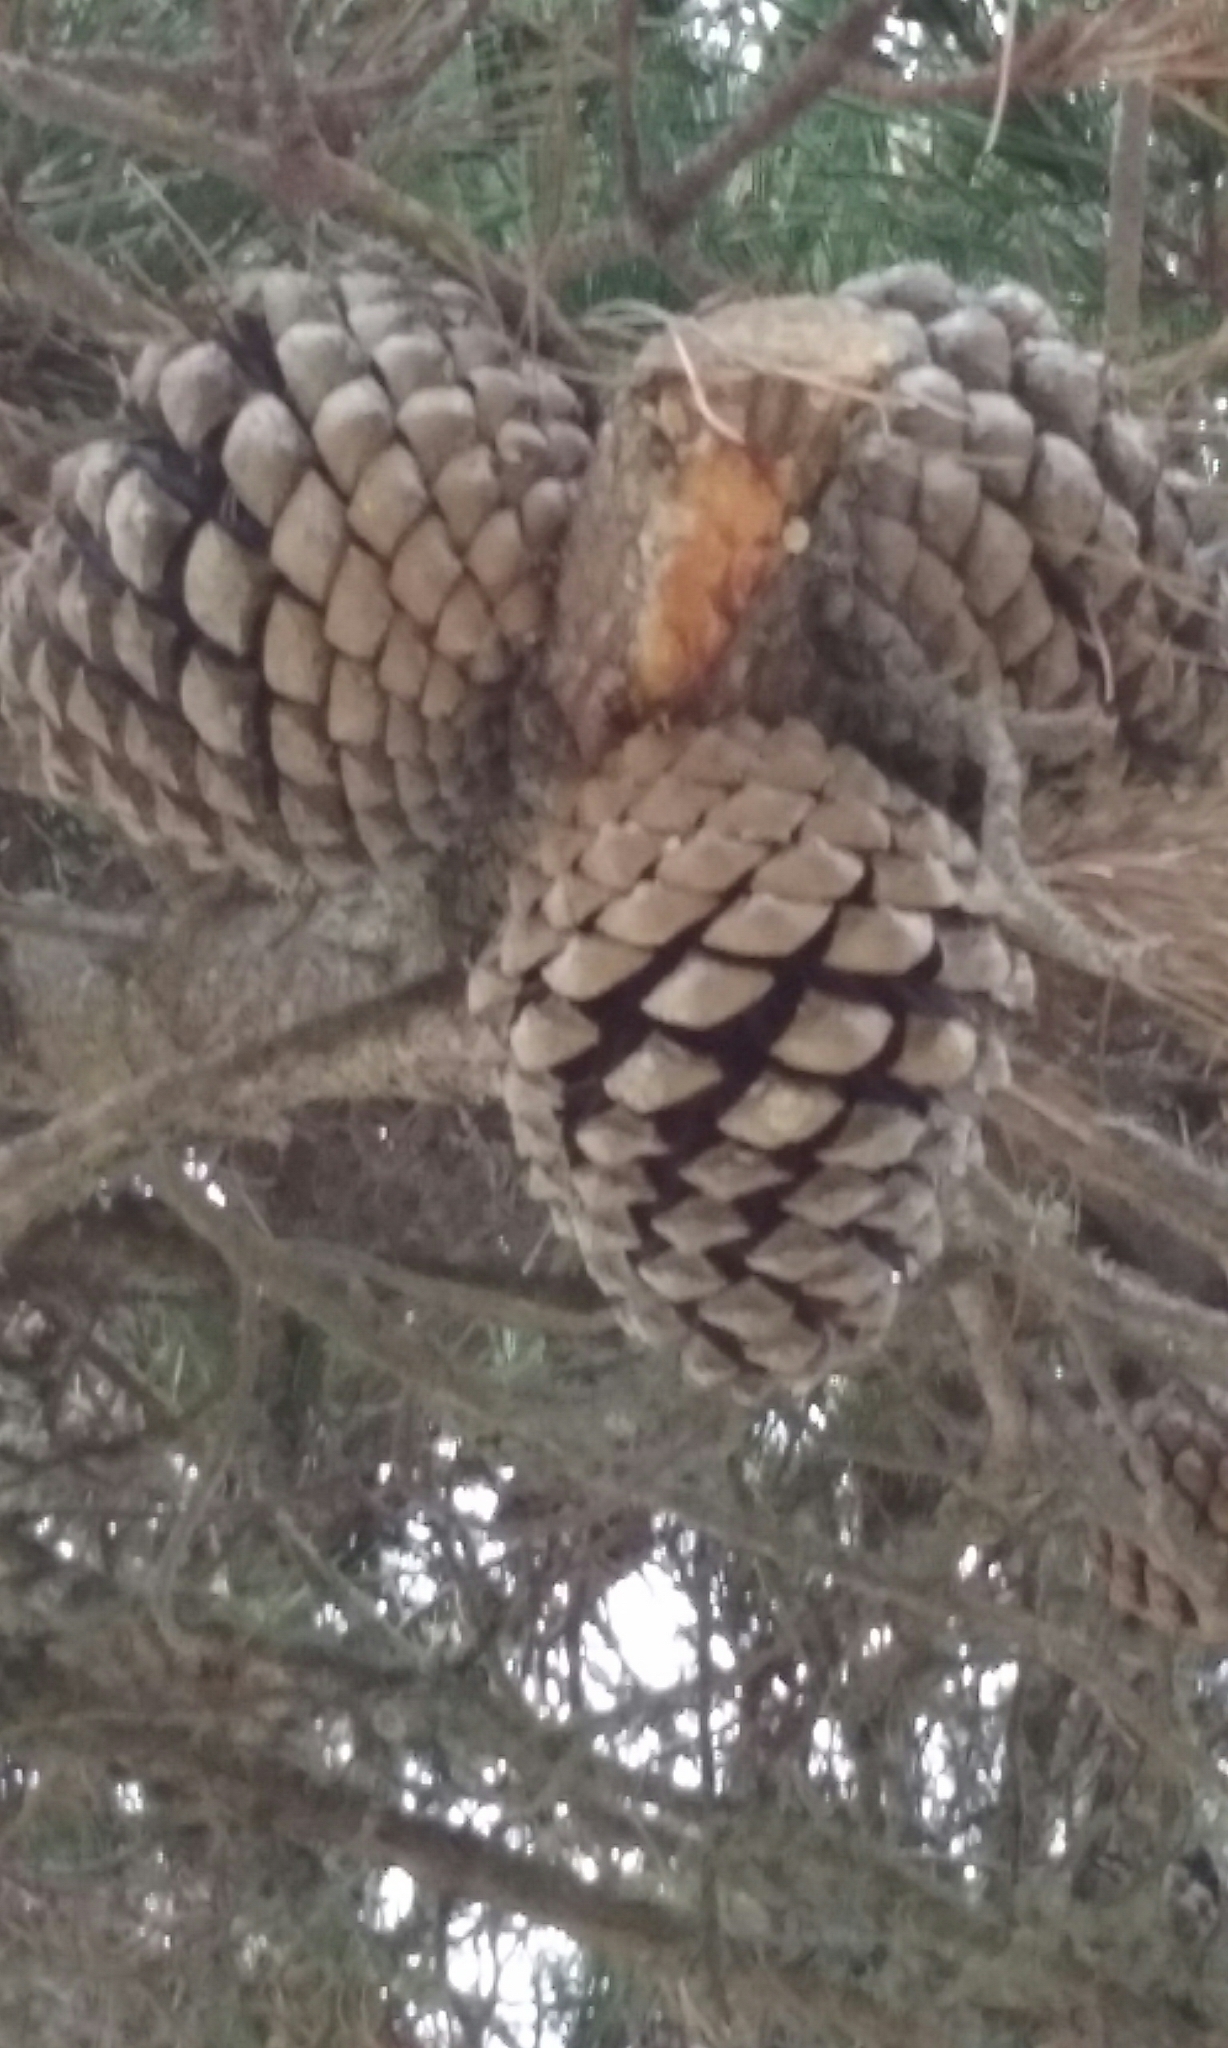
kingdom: Plantae
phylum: Tracheophyta
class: Pinopsida
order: Pinales
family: Pinaceae
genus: Pinus
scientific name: Pinus radiata
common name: Monterey pine
